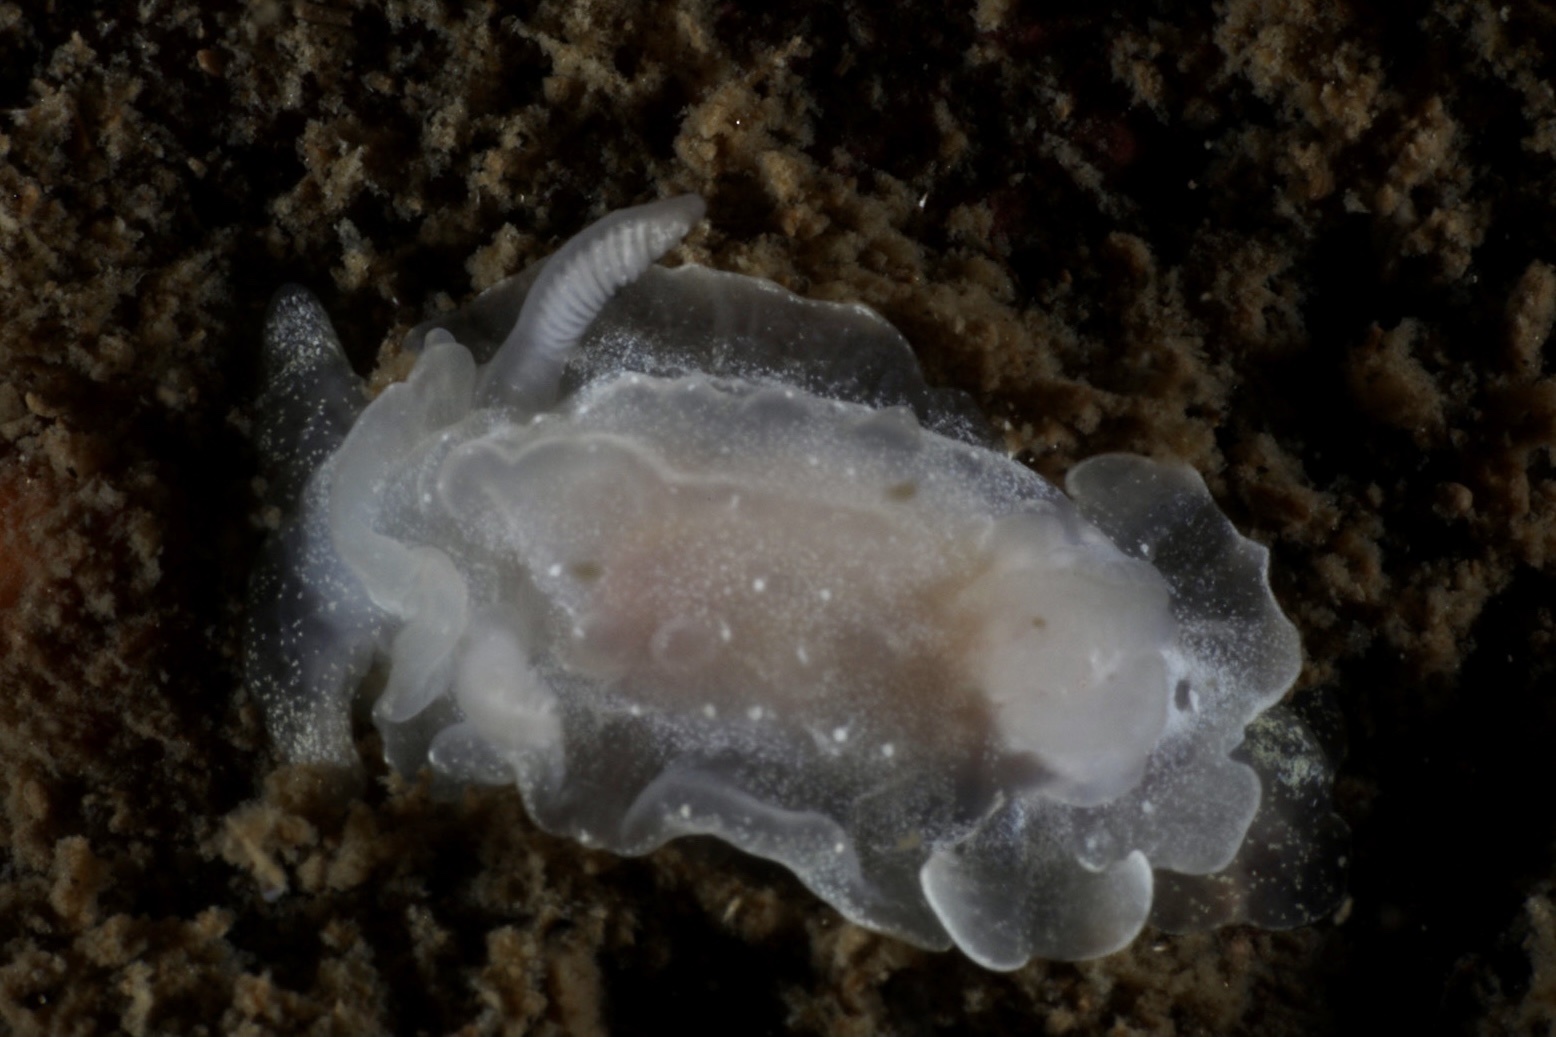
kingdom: Animalia
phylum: Mollusca
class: Gastropoda
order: Nudibranchia
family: Goniodorididae
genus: Okenia
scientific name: Okenia
